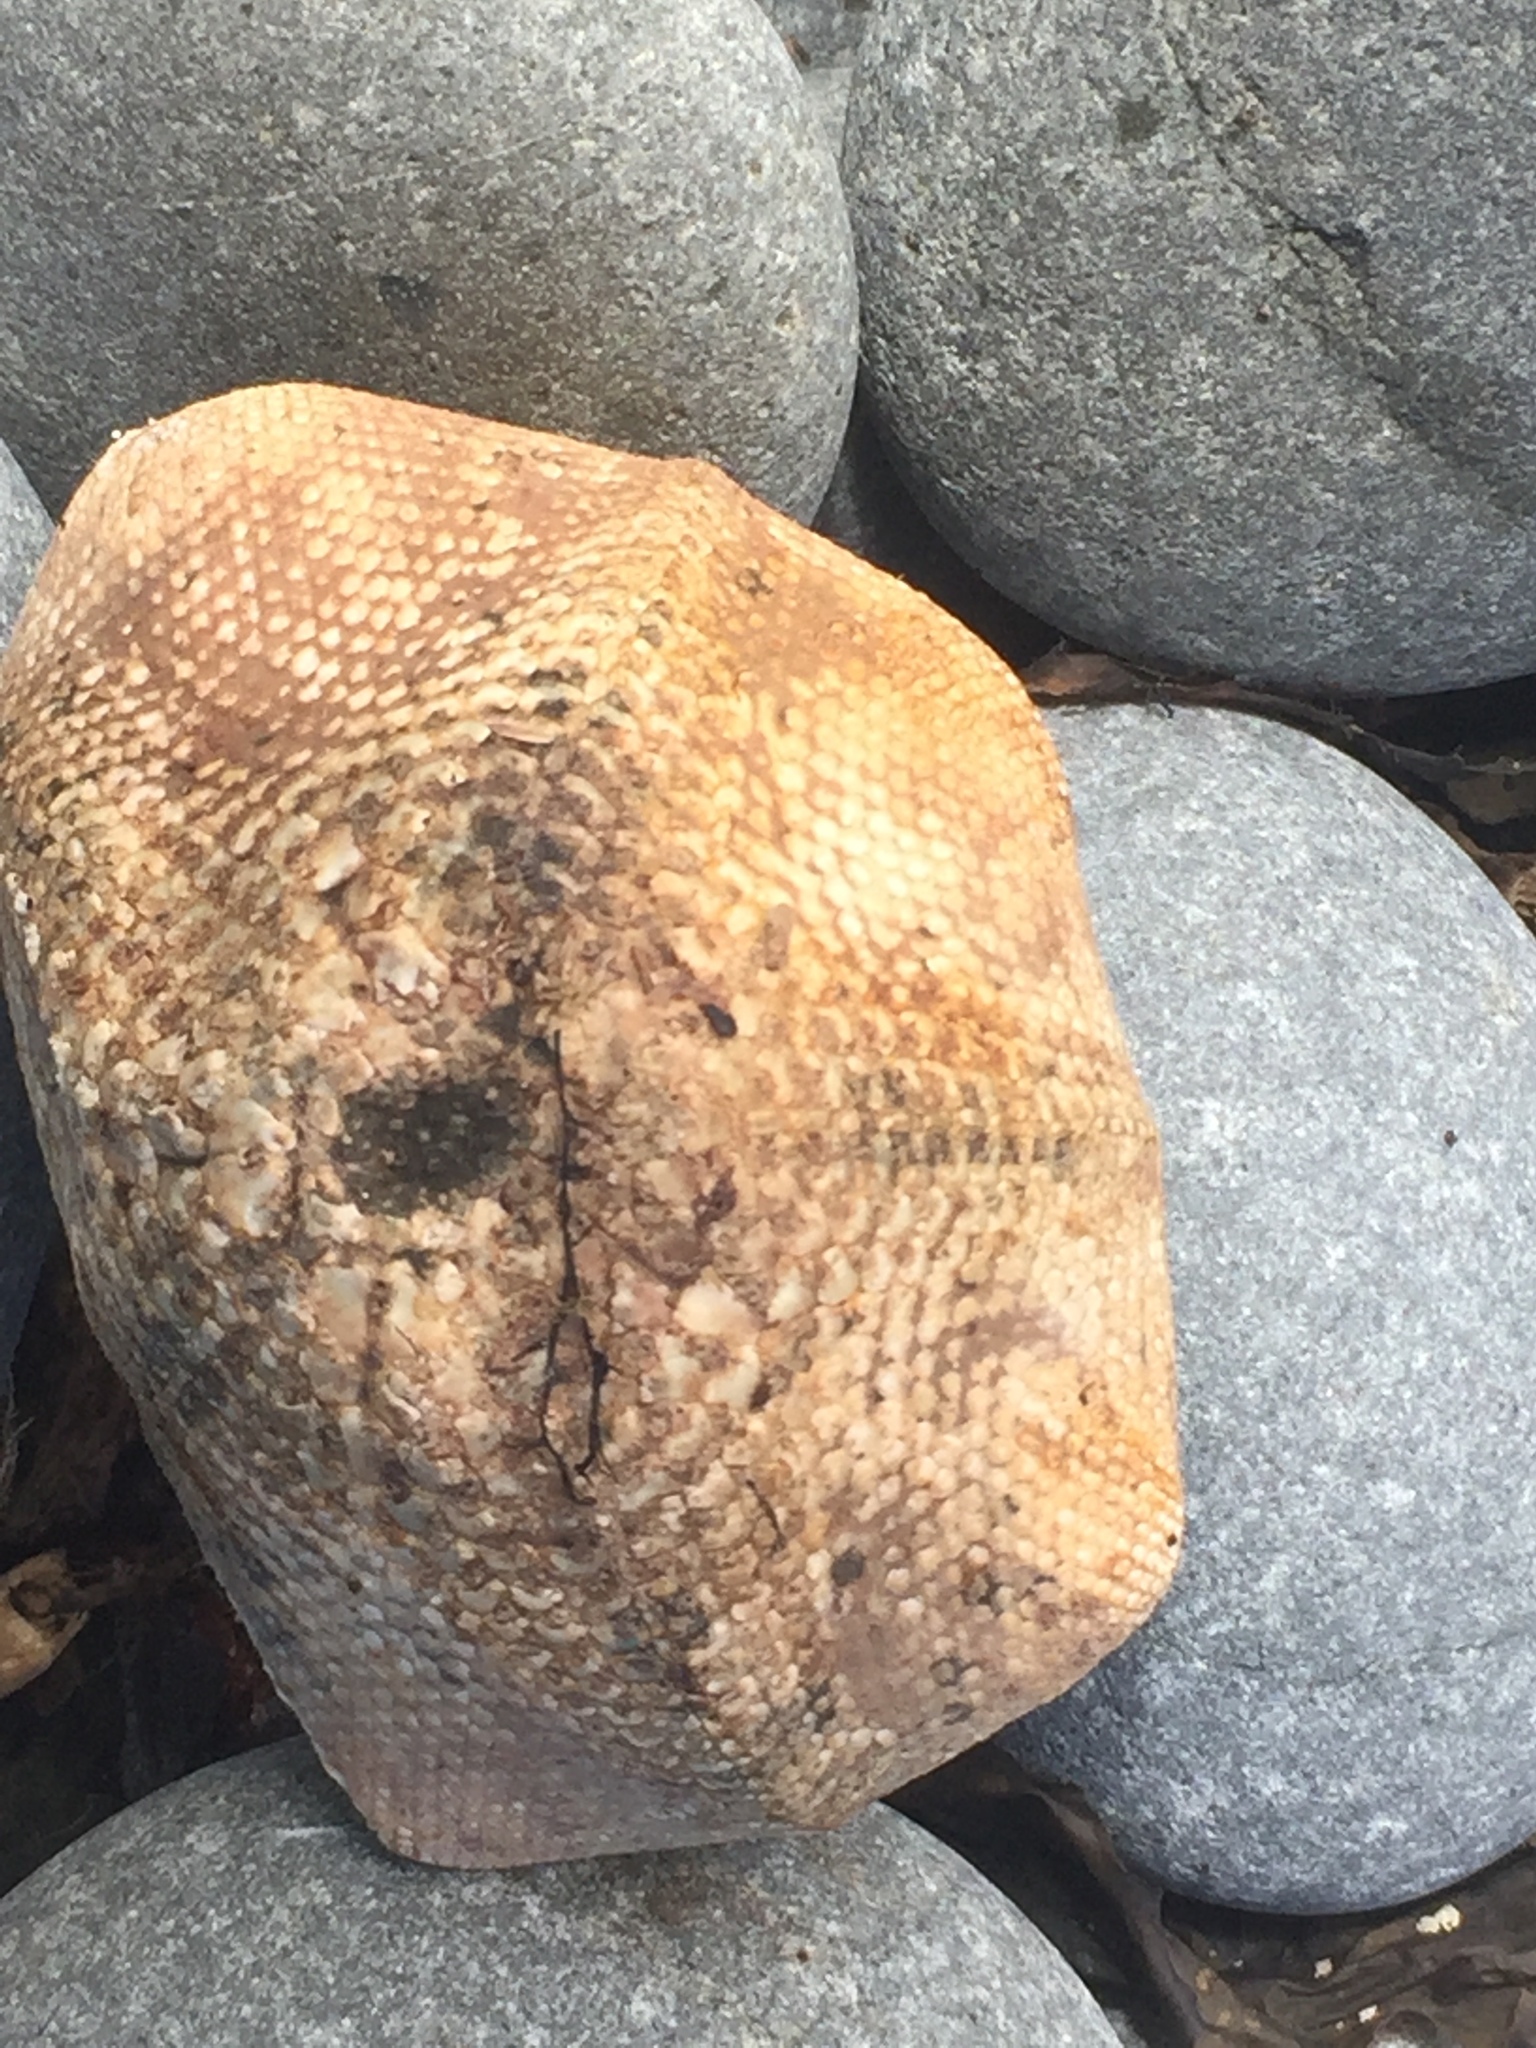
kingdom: Animalia
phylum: Echinodermata
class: Asteroidea
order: Valvatida
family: Asterinidae
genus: Stegnaster
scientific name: Stegnaster inflatus
